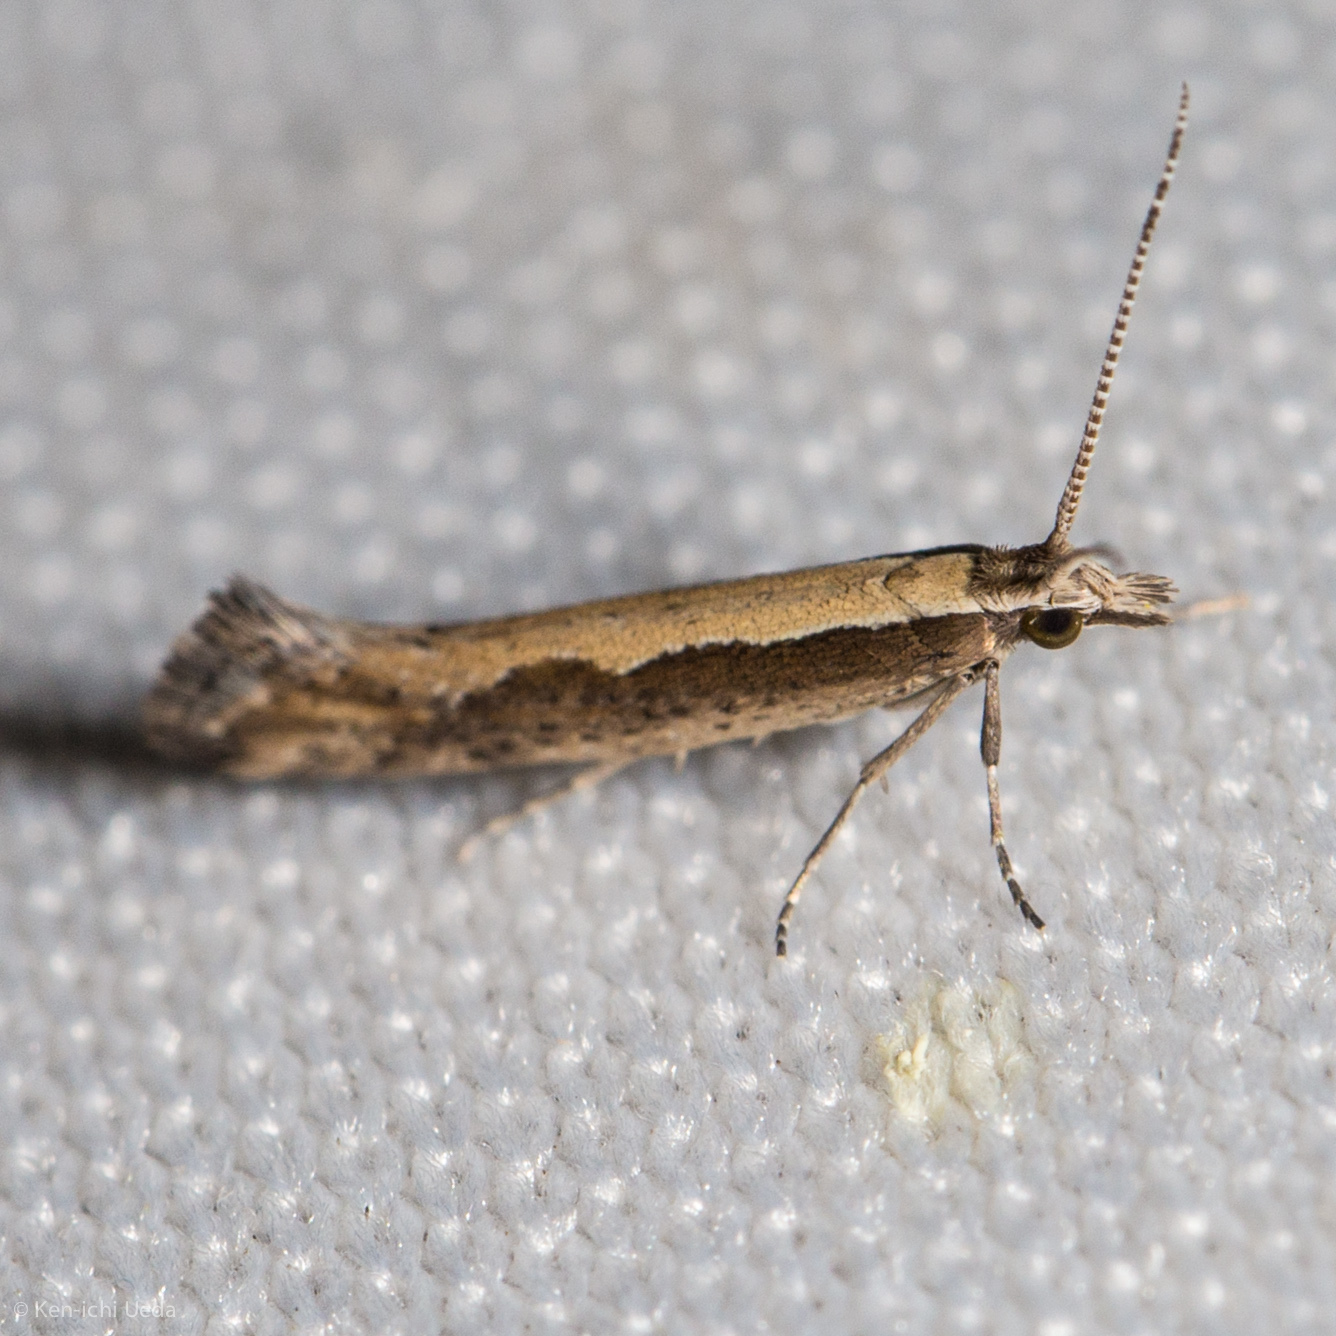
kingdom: Animalia
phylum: Arthropoda
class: Insecta
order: Lepidoptera
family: Plutellidae
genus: Plutella
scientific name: Plutella xylostella
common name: Diamond-back moth
